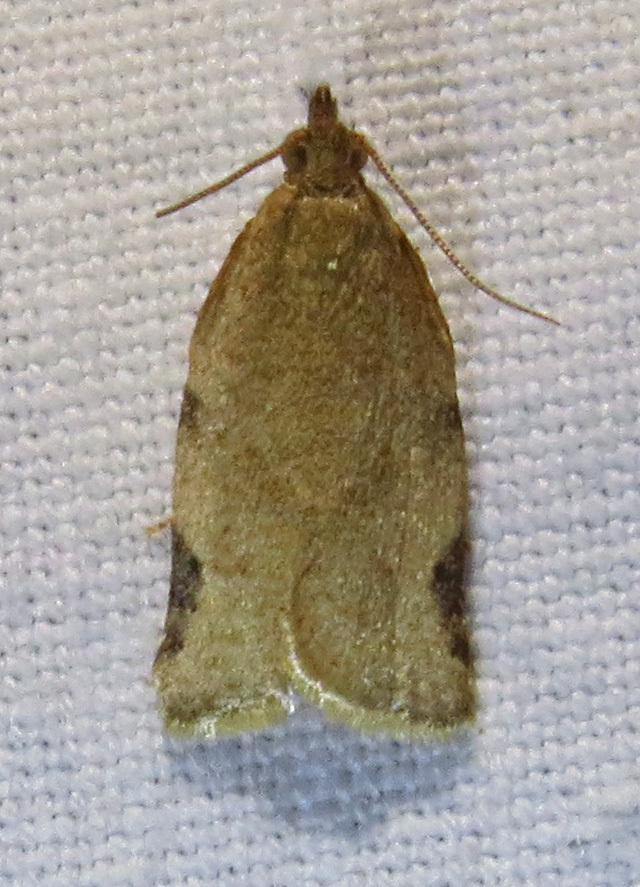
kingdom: Animalia
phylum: Arthropoda
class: Insecta
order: Lepidoptera
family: Tortricidae
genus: Clepsis
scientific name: Clepsis virescana
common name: Greenish apple moth
